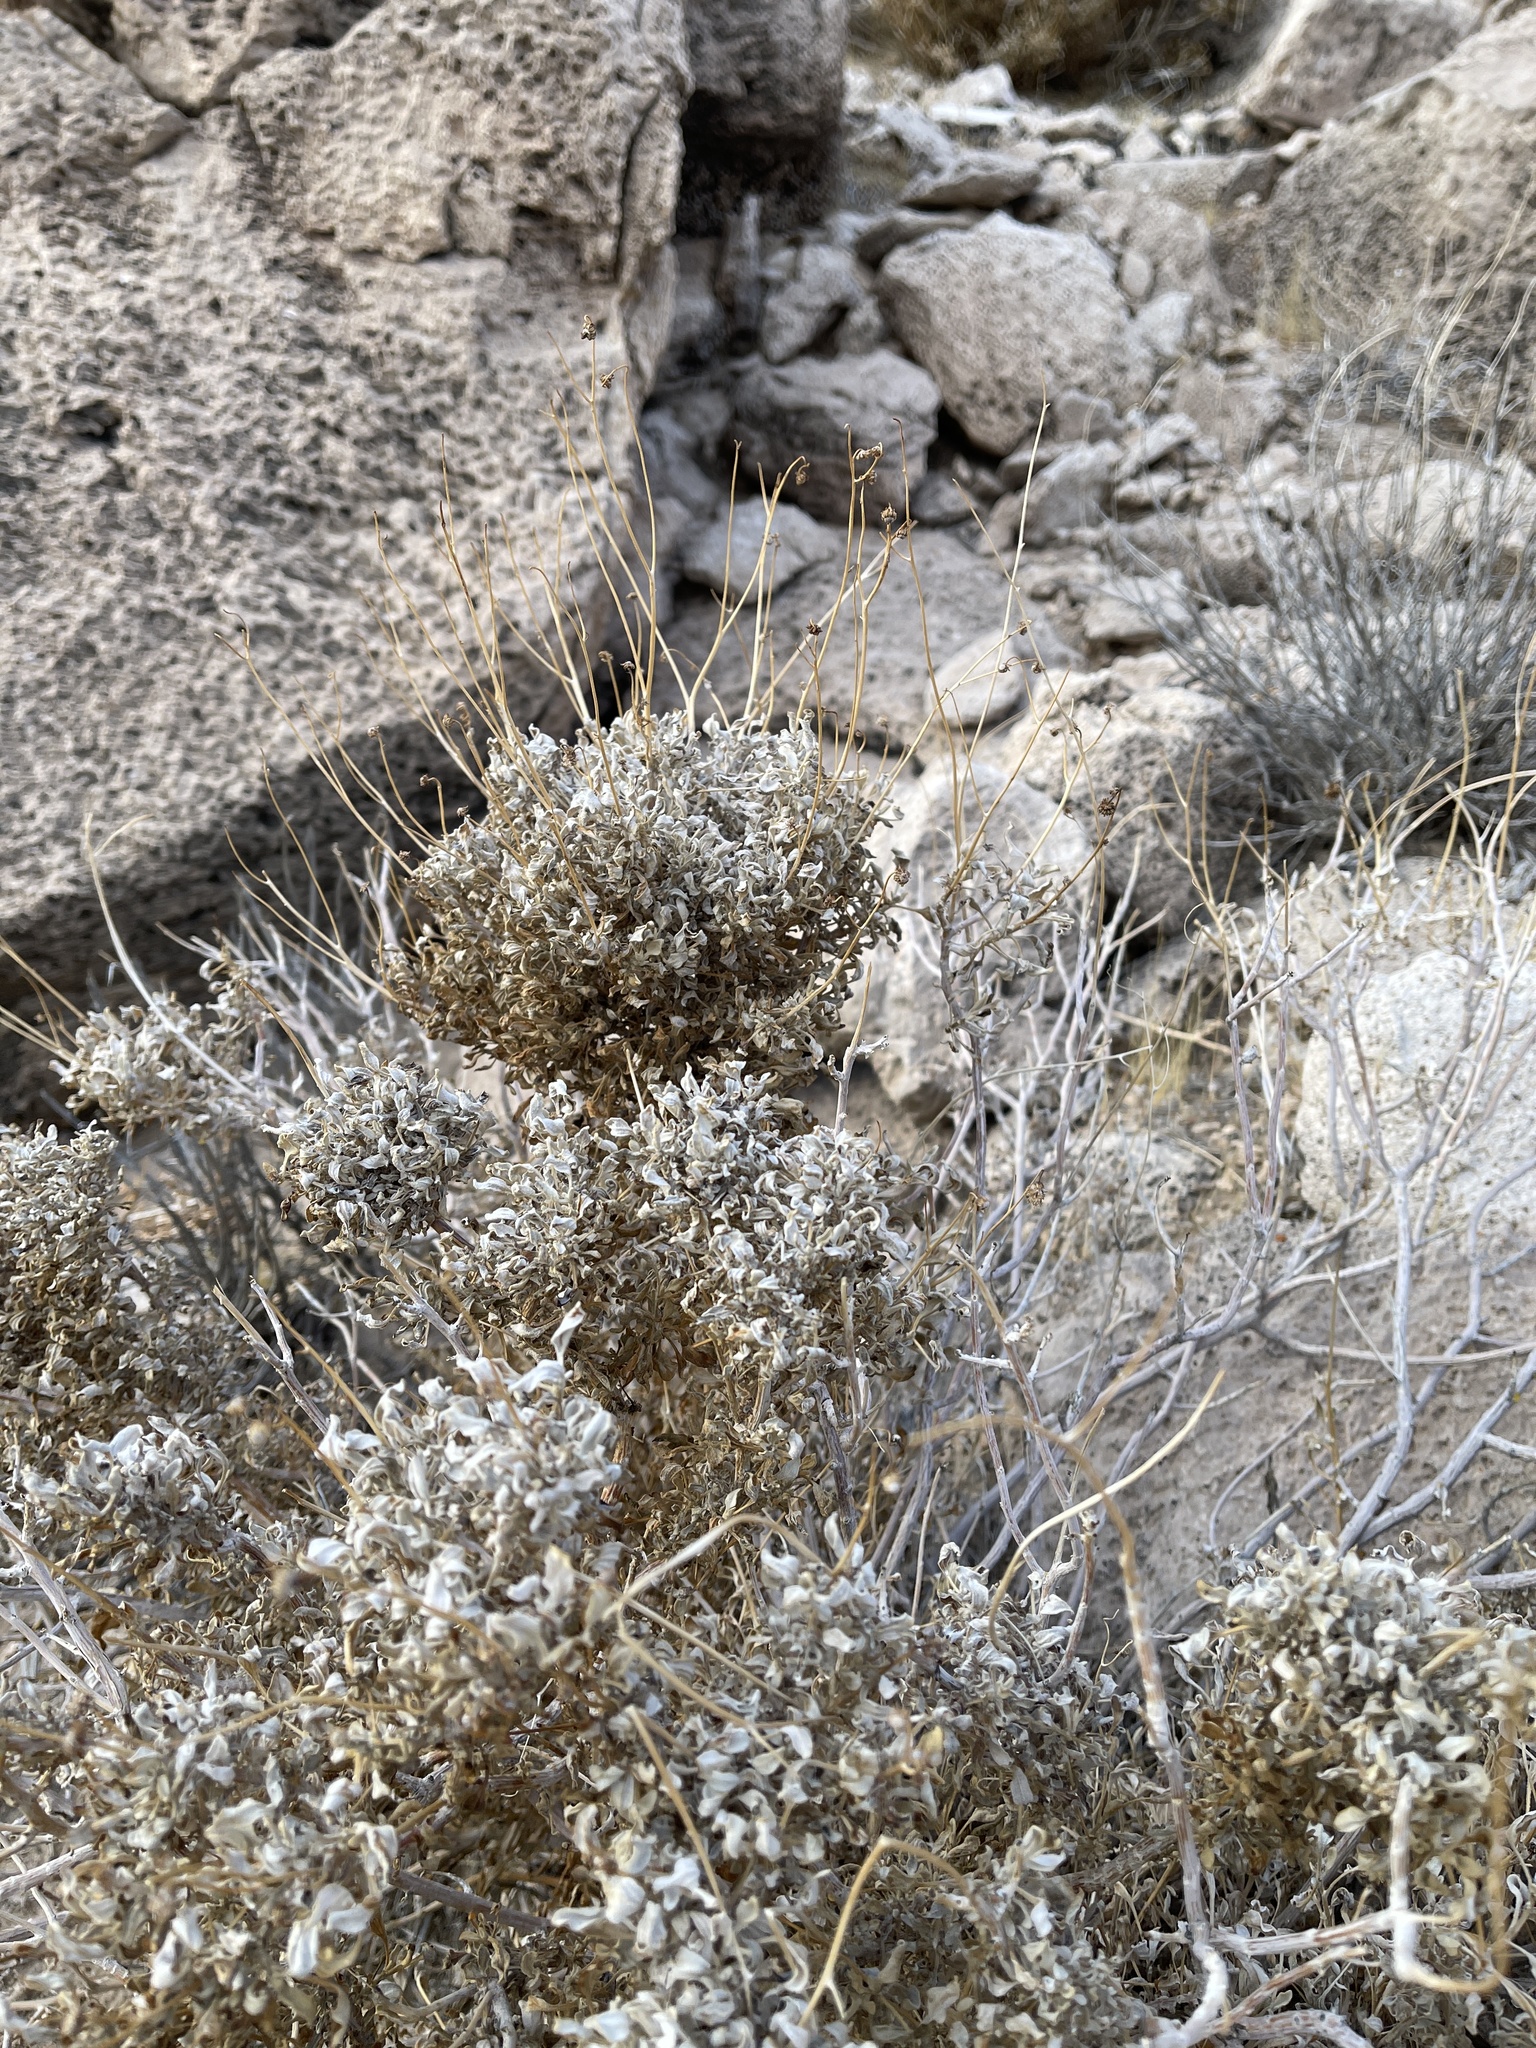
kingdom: Plantae
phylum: Tracheophyta
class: Magnoliopsida
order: Asterales
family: Asteraceae
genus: Encelia
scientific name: Encelia farinosa
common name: Brittlebush
